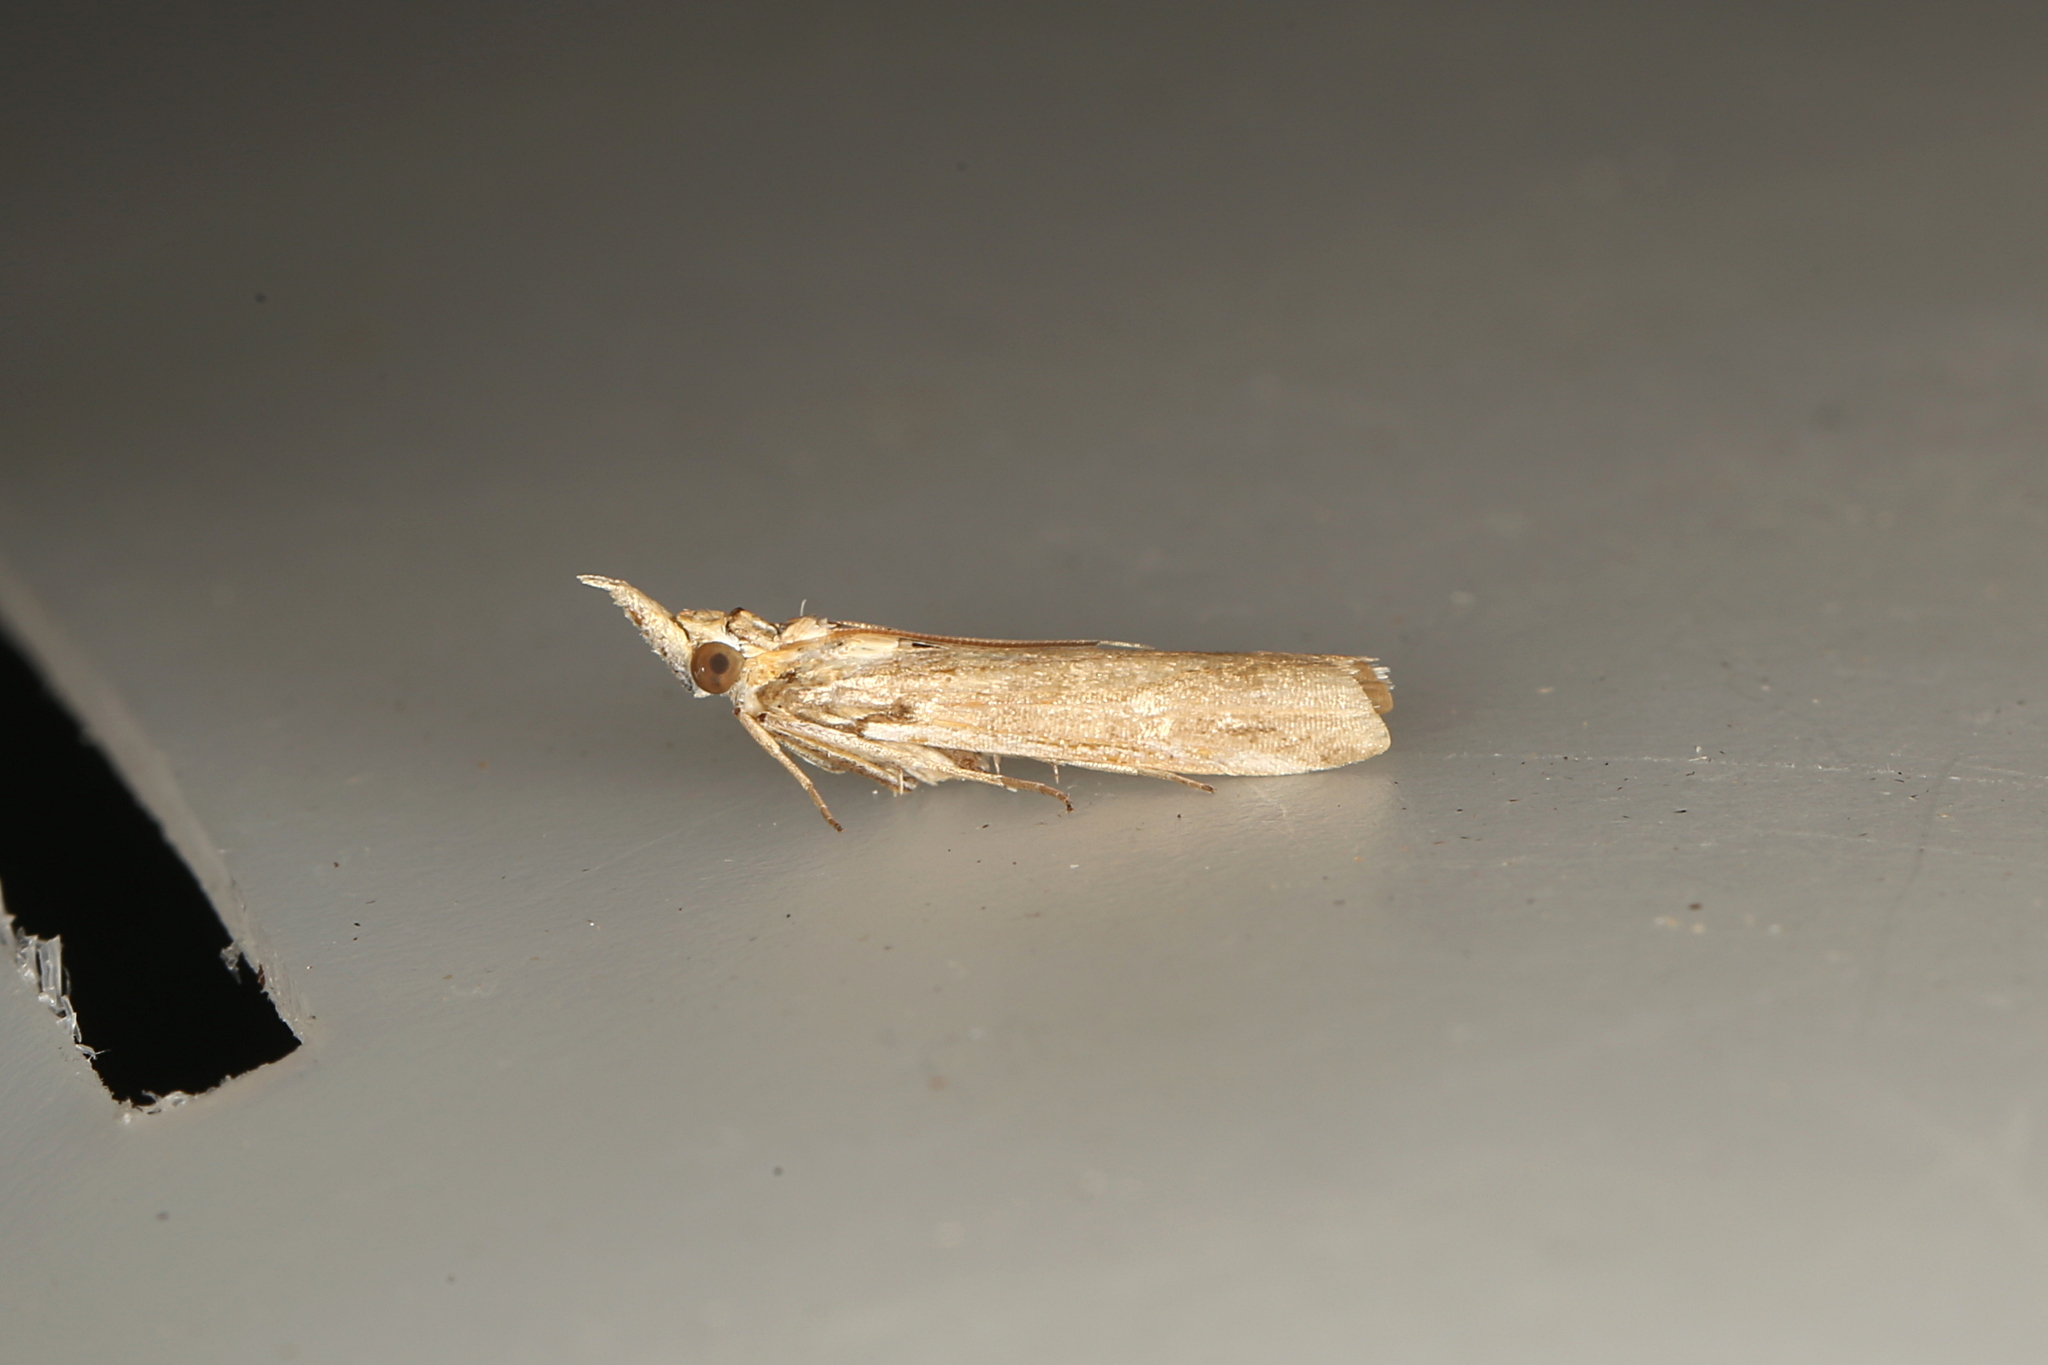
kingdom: Animalia
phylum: Arthropoda
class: Insecta
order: Lepidoptera
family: Pyralidae
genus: Etiella
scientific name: Etiella behrii
